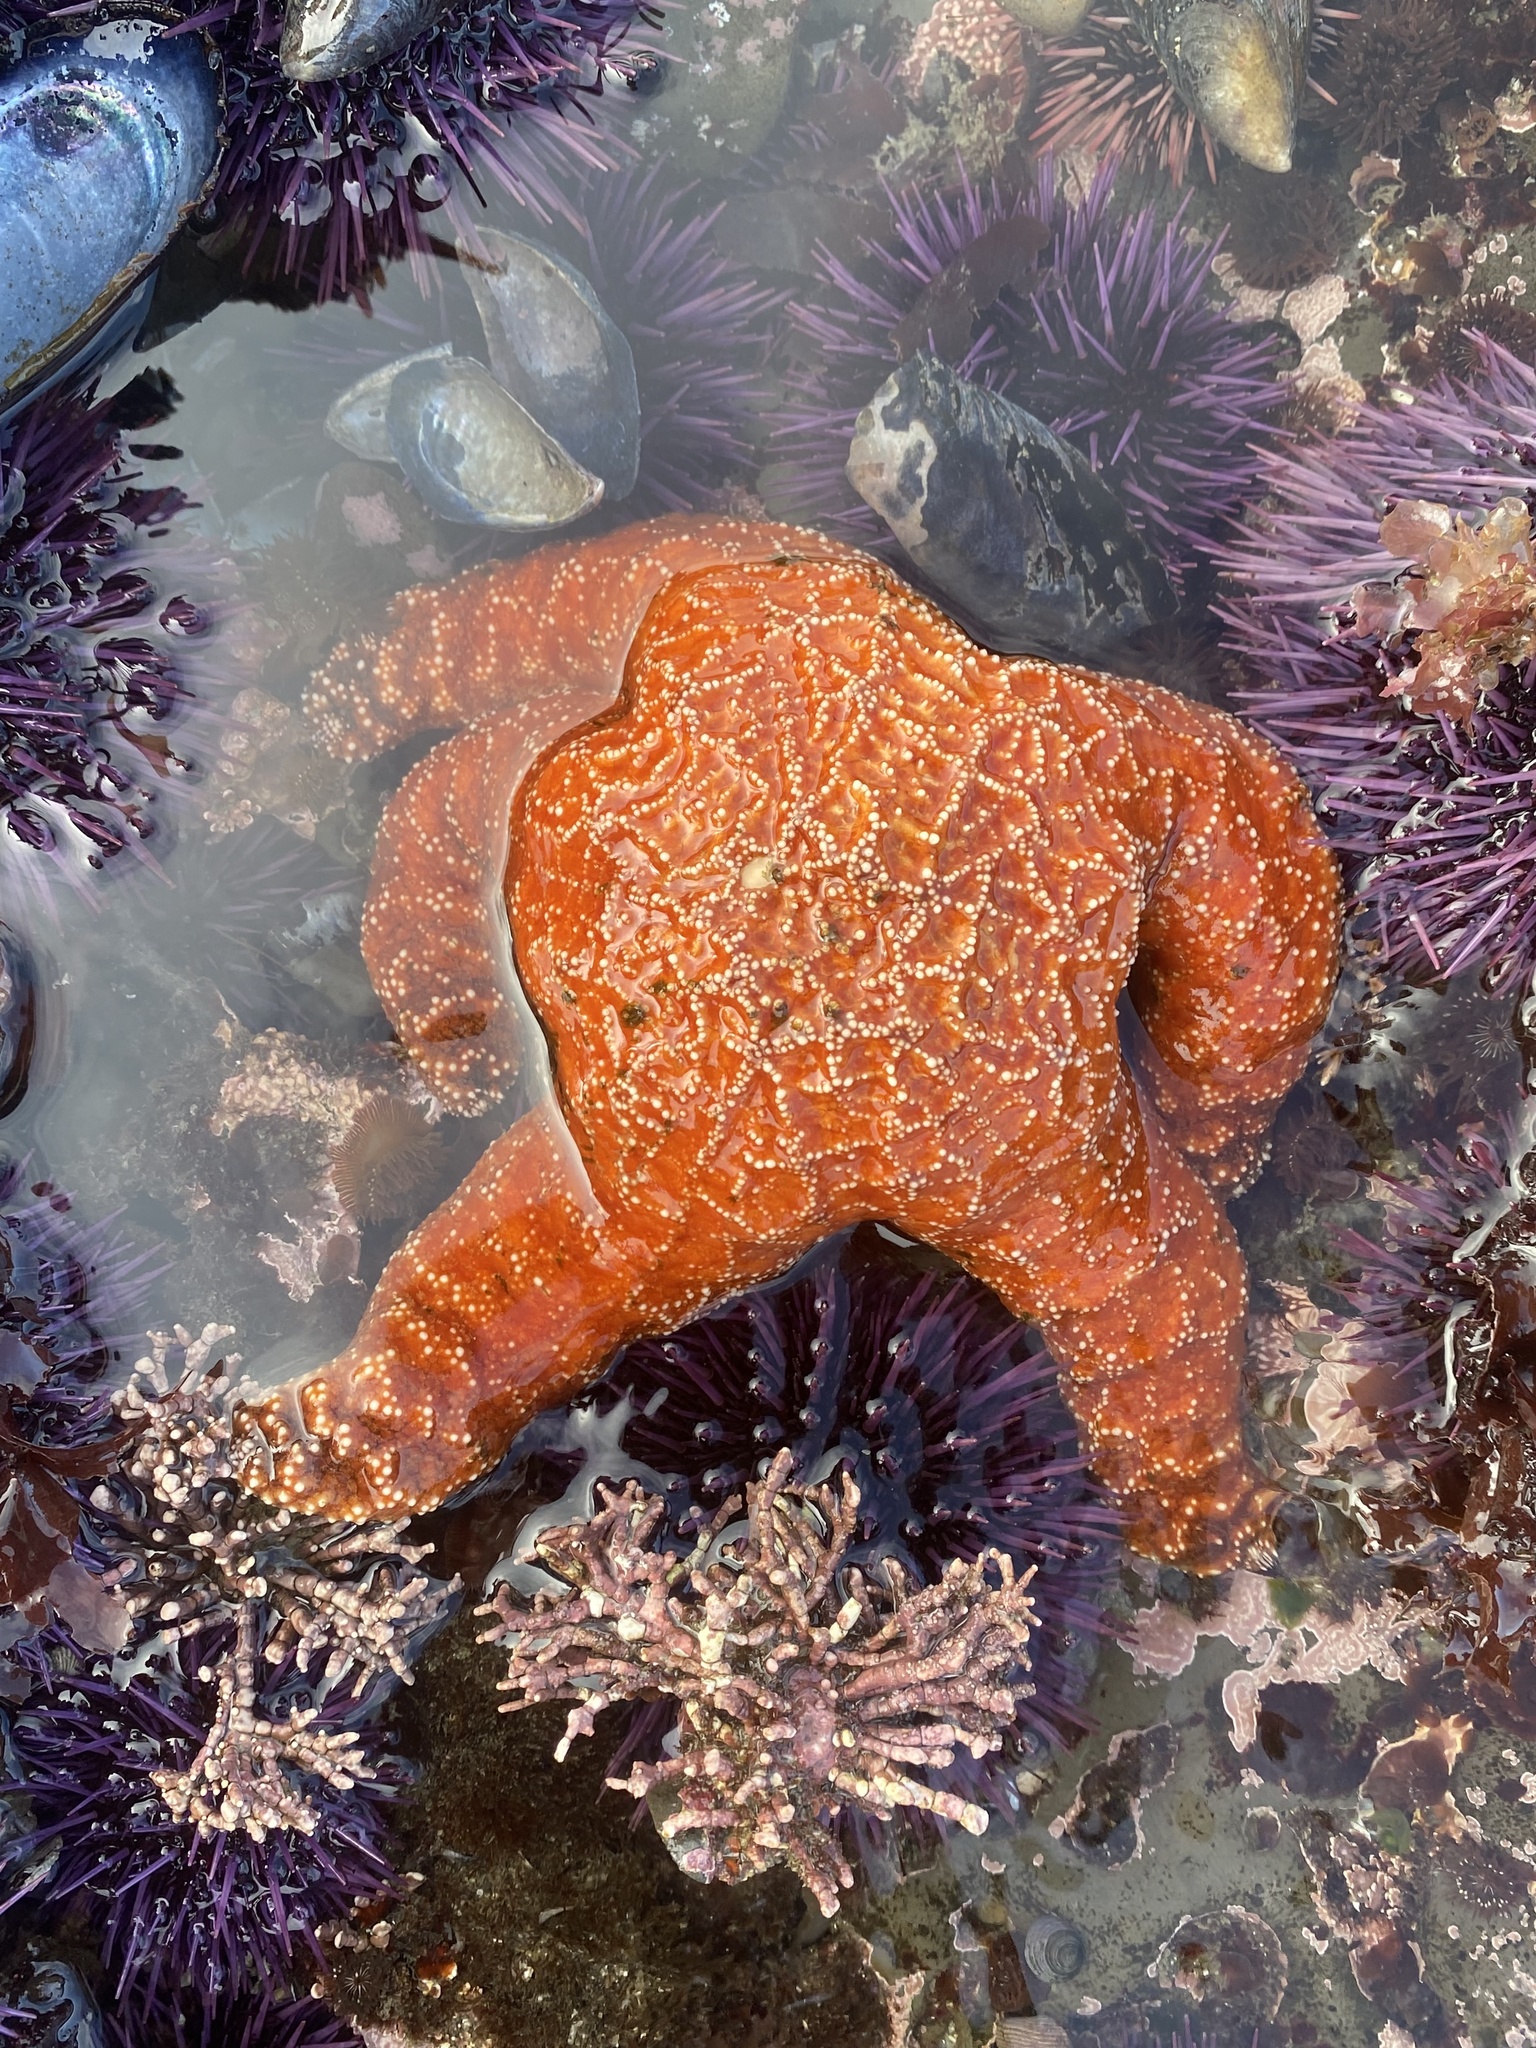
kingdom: Animalia
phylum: Echinodermata
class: Asteroidea
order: Forcipulatida
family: Asteriidae
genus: Pisaster
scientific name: Pisaster ochraceus
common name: Ochre stars
